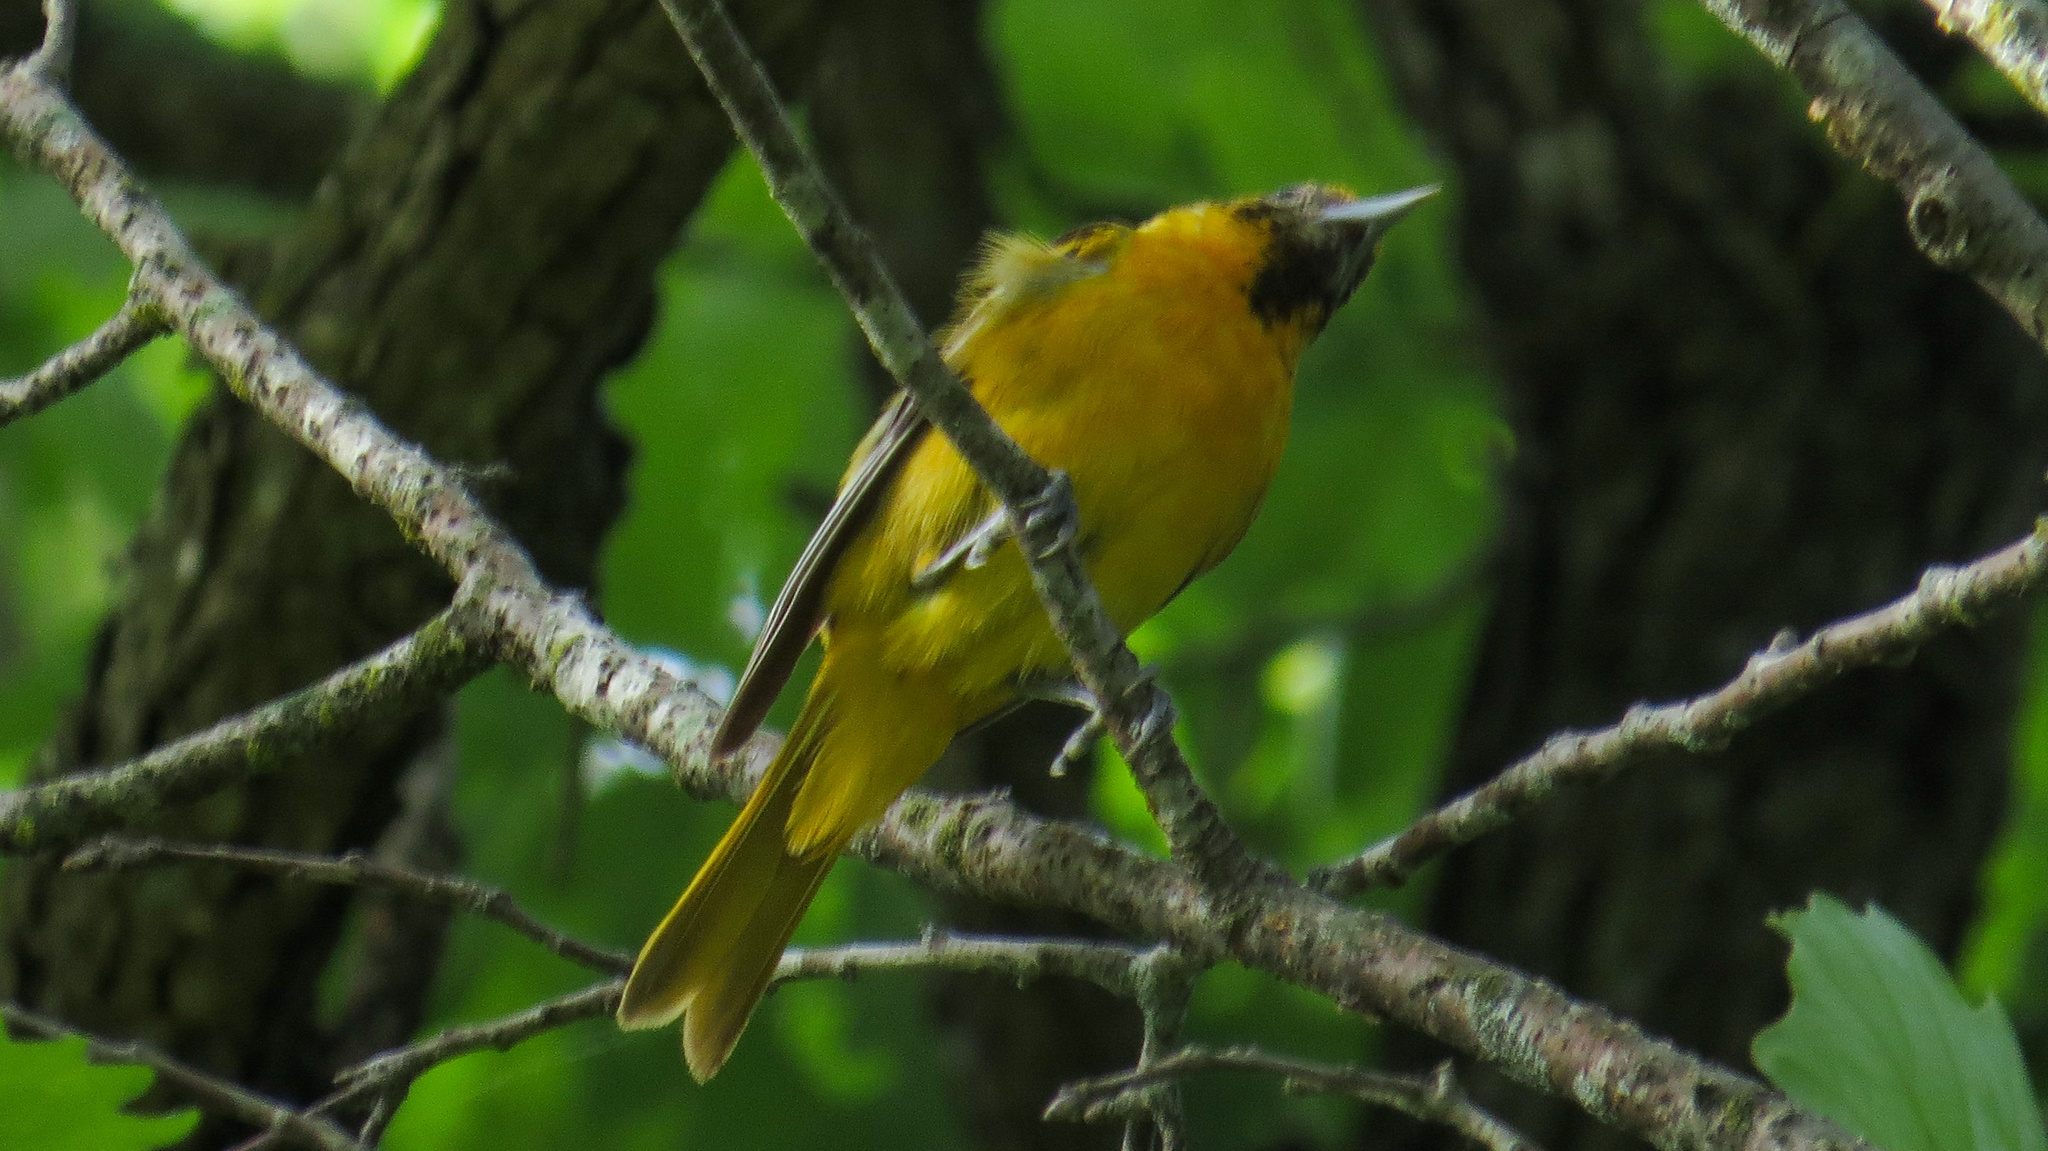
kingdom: Animalia
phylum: Chordata
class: Aves
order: Passeriformes
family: Icteridae
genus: Icterus
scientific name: Icterus galbula
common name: Baltimore oriole
